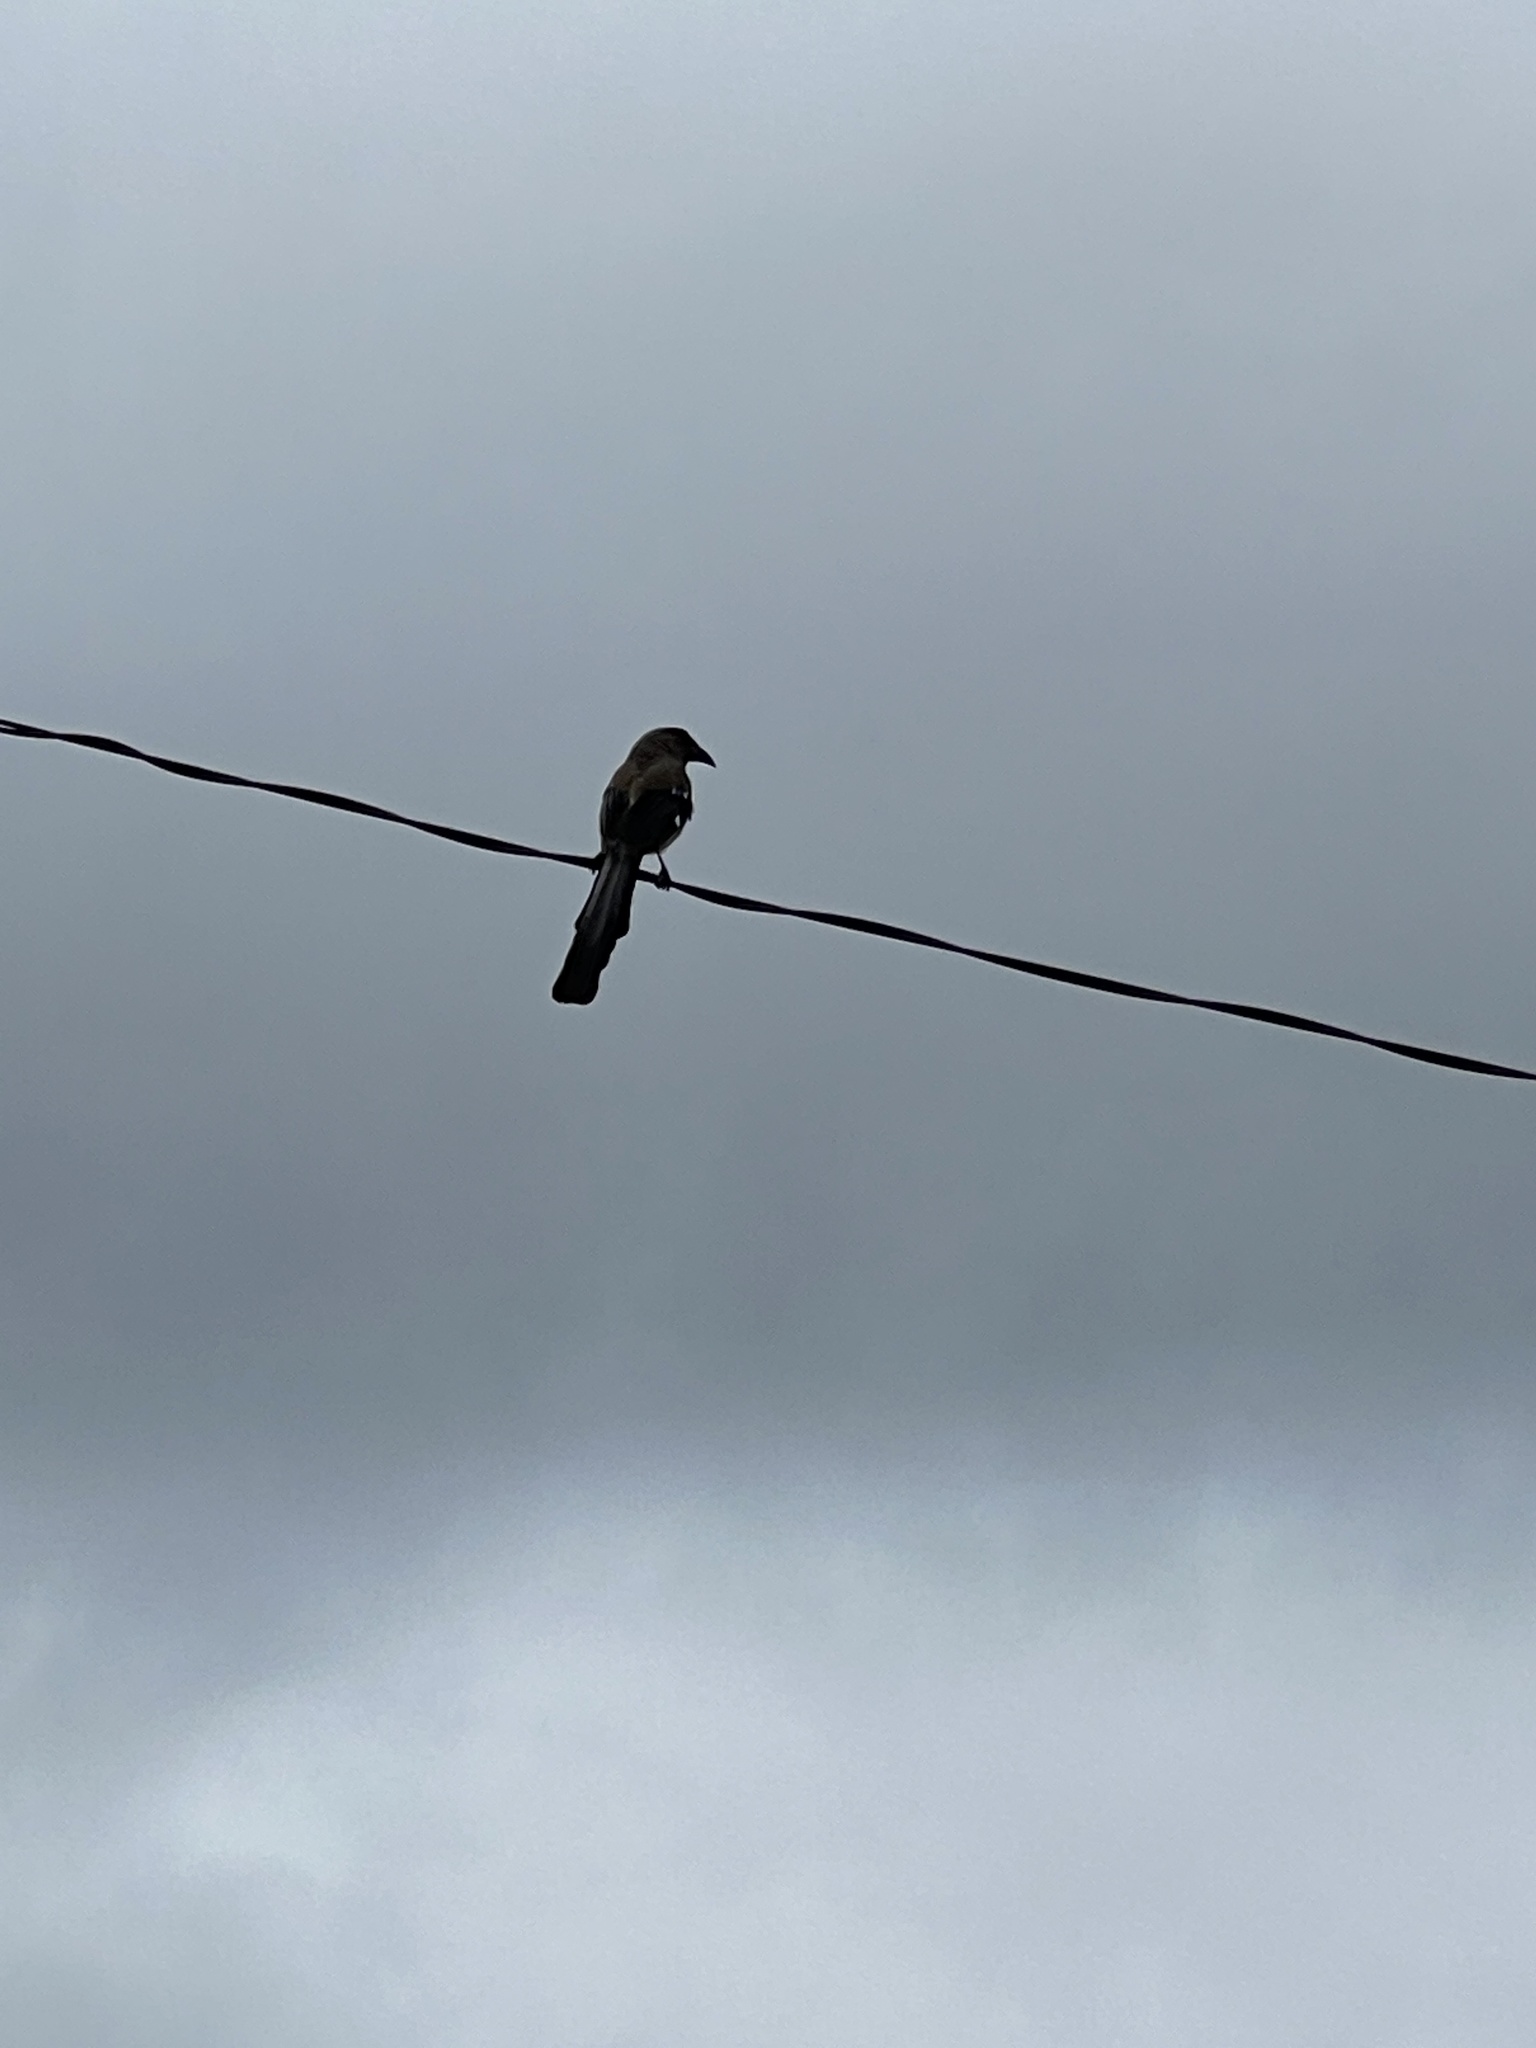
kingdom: Animalia
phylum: Chordata
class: Aves
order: Passeriformes
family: Corvidae
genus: Dendrocitta
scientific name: Dendrocitta formosae
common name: Grey treepie
